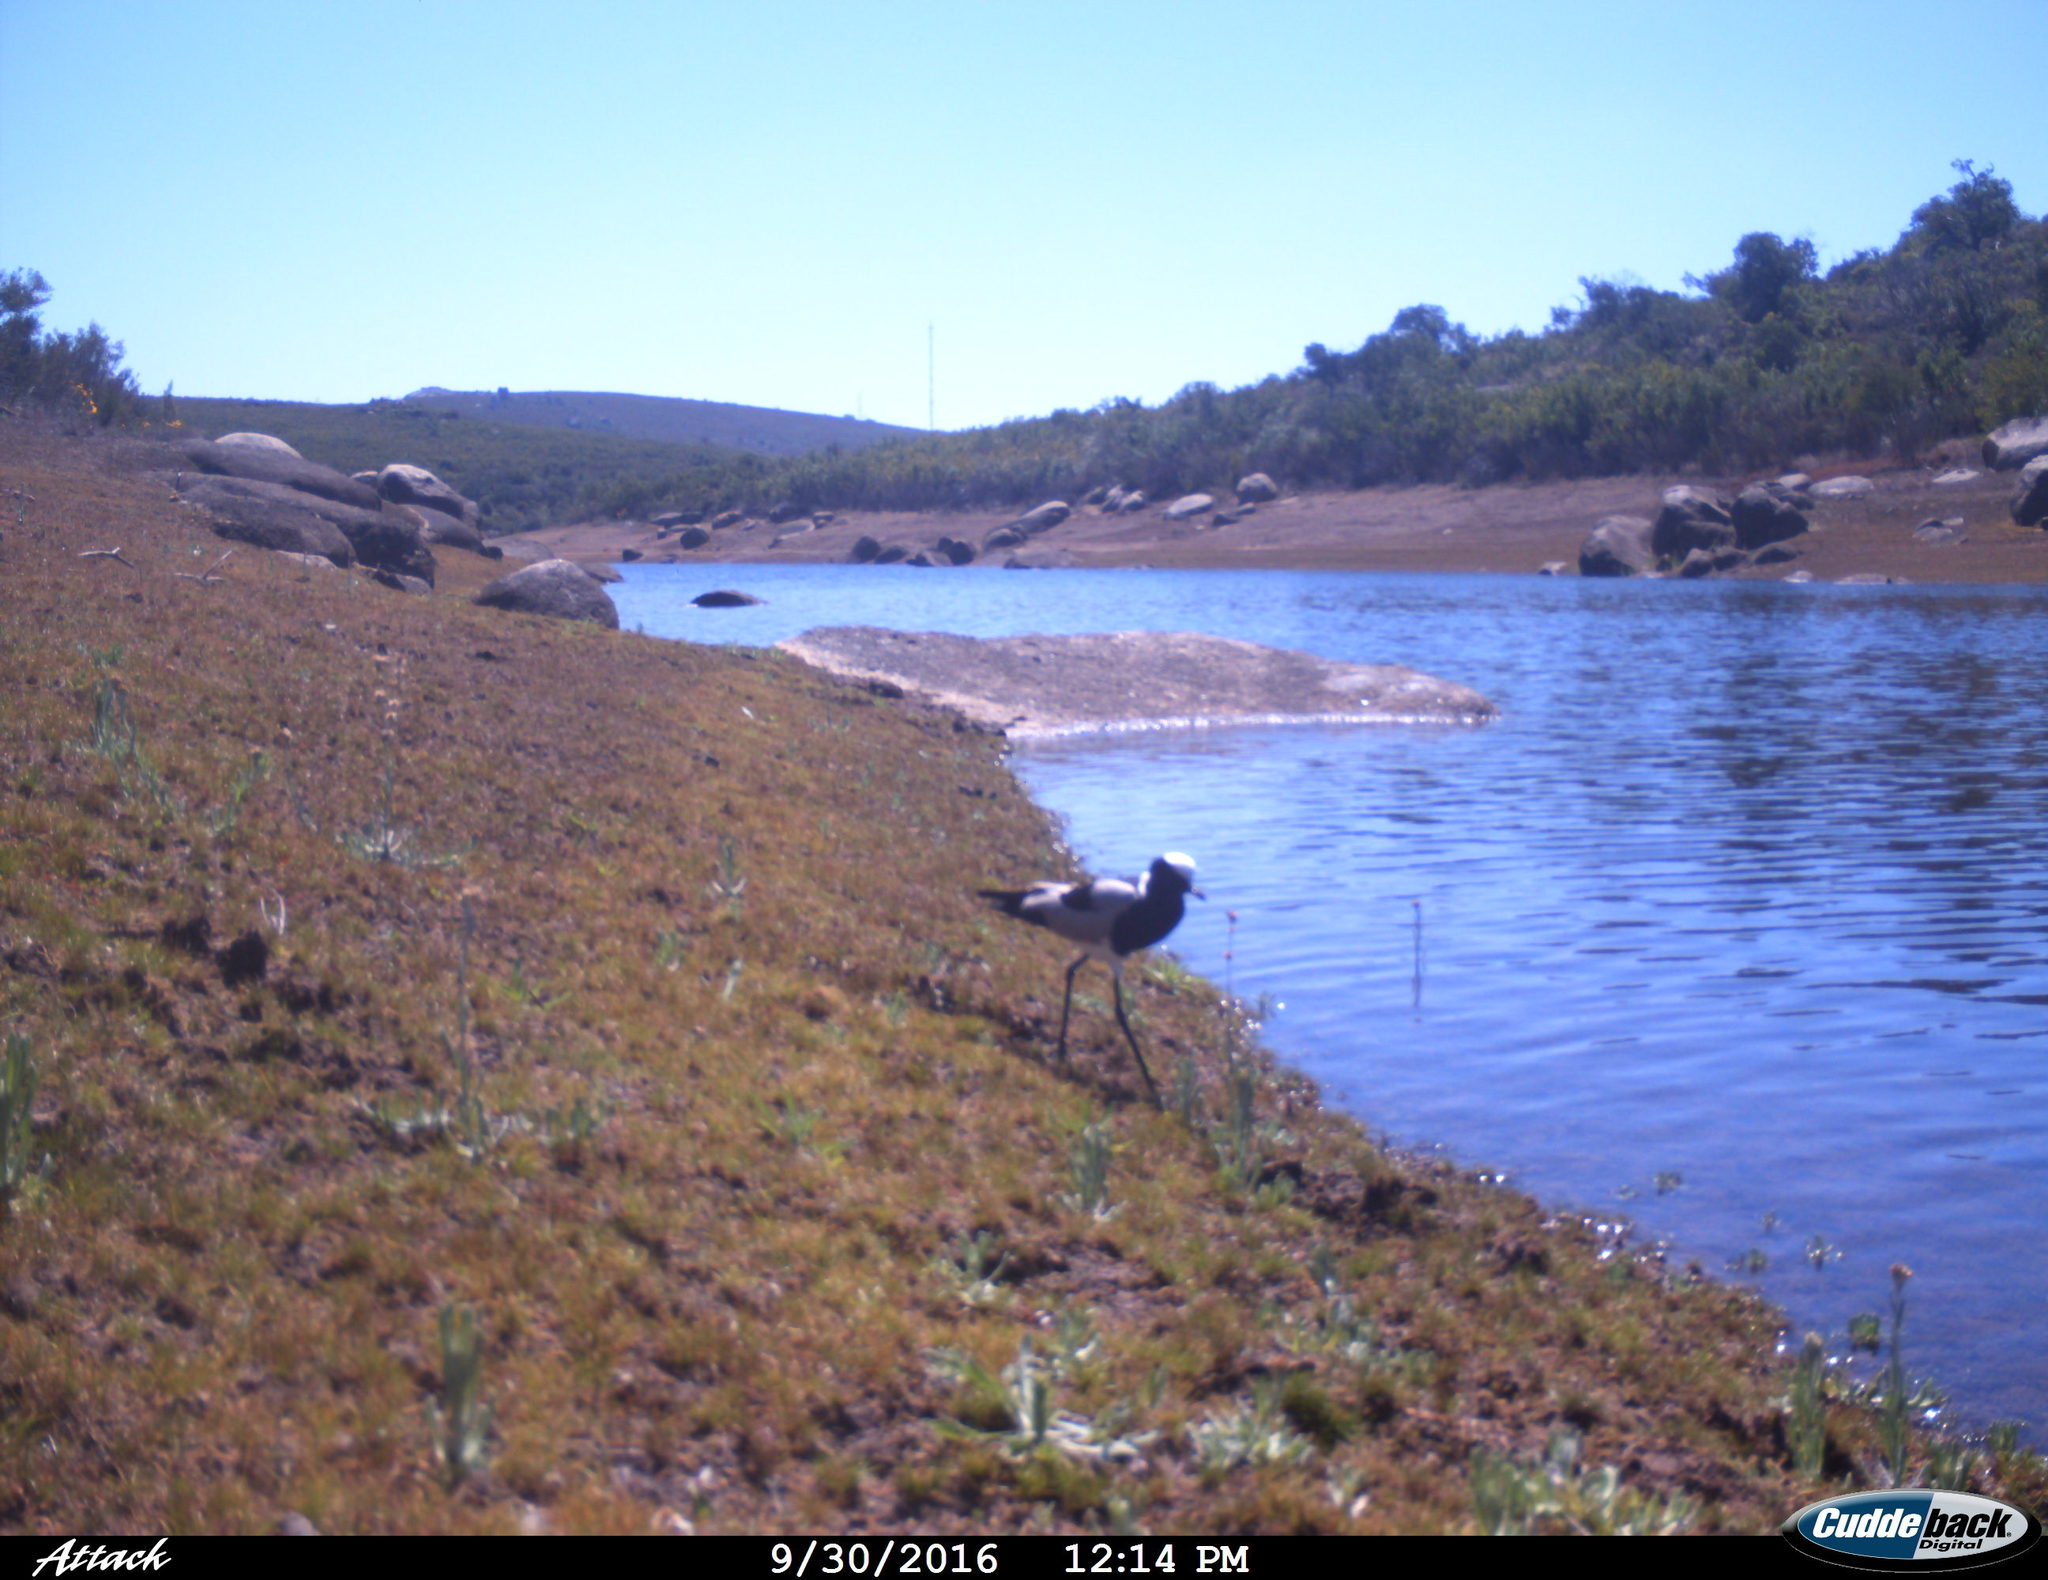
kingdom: Animalia
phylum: Chordata
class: Aves
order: Charadriiformes
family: Charadriidae
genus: Vanellus
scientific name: Vanellus armatus
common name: Blacksmith lapwing
